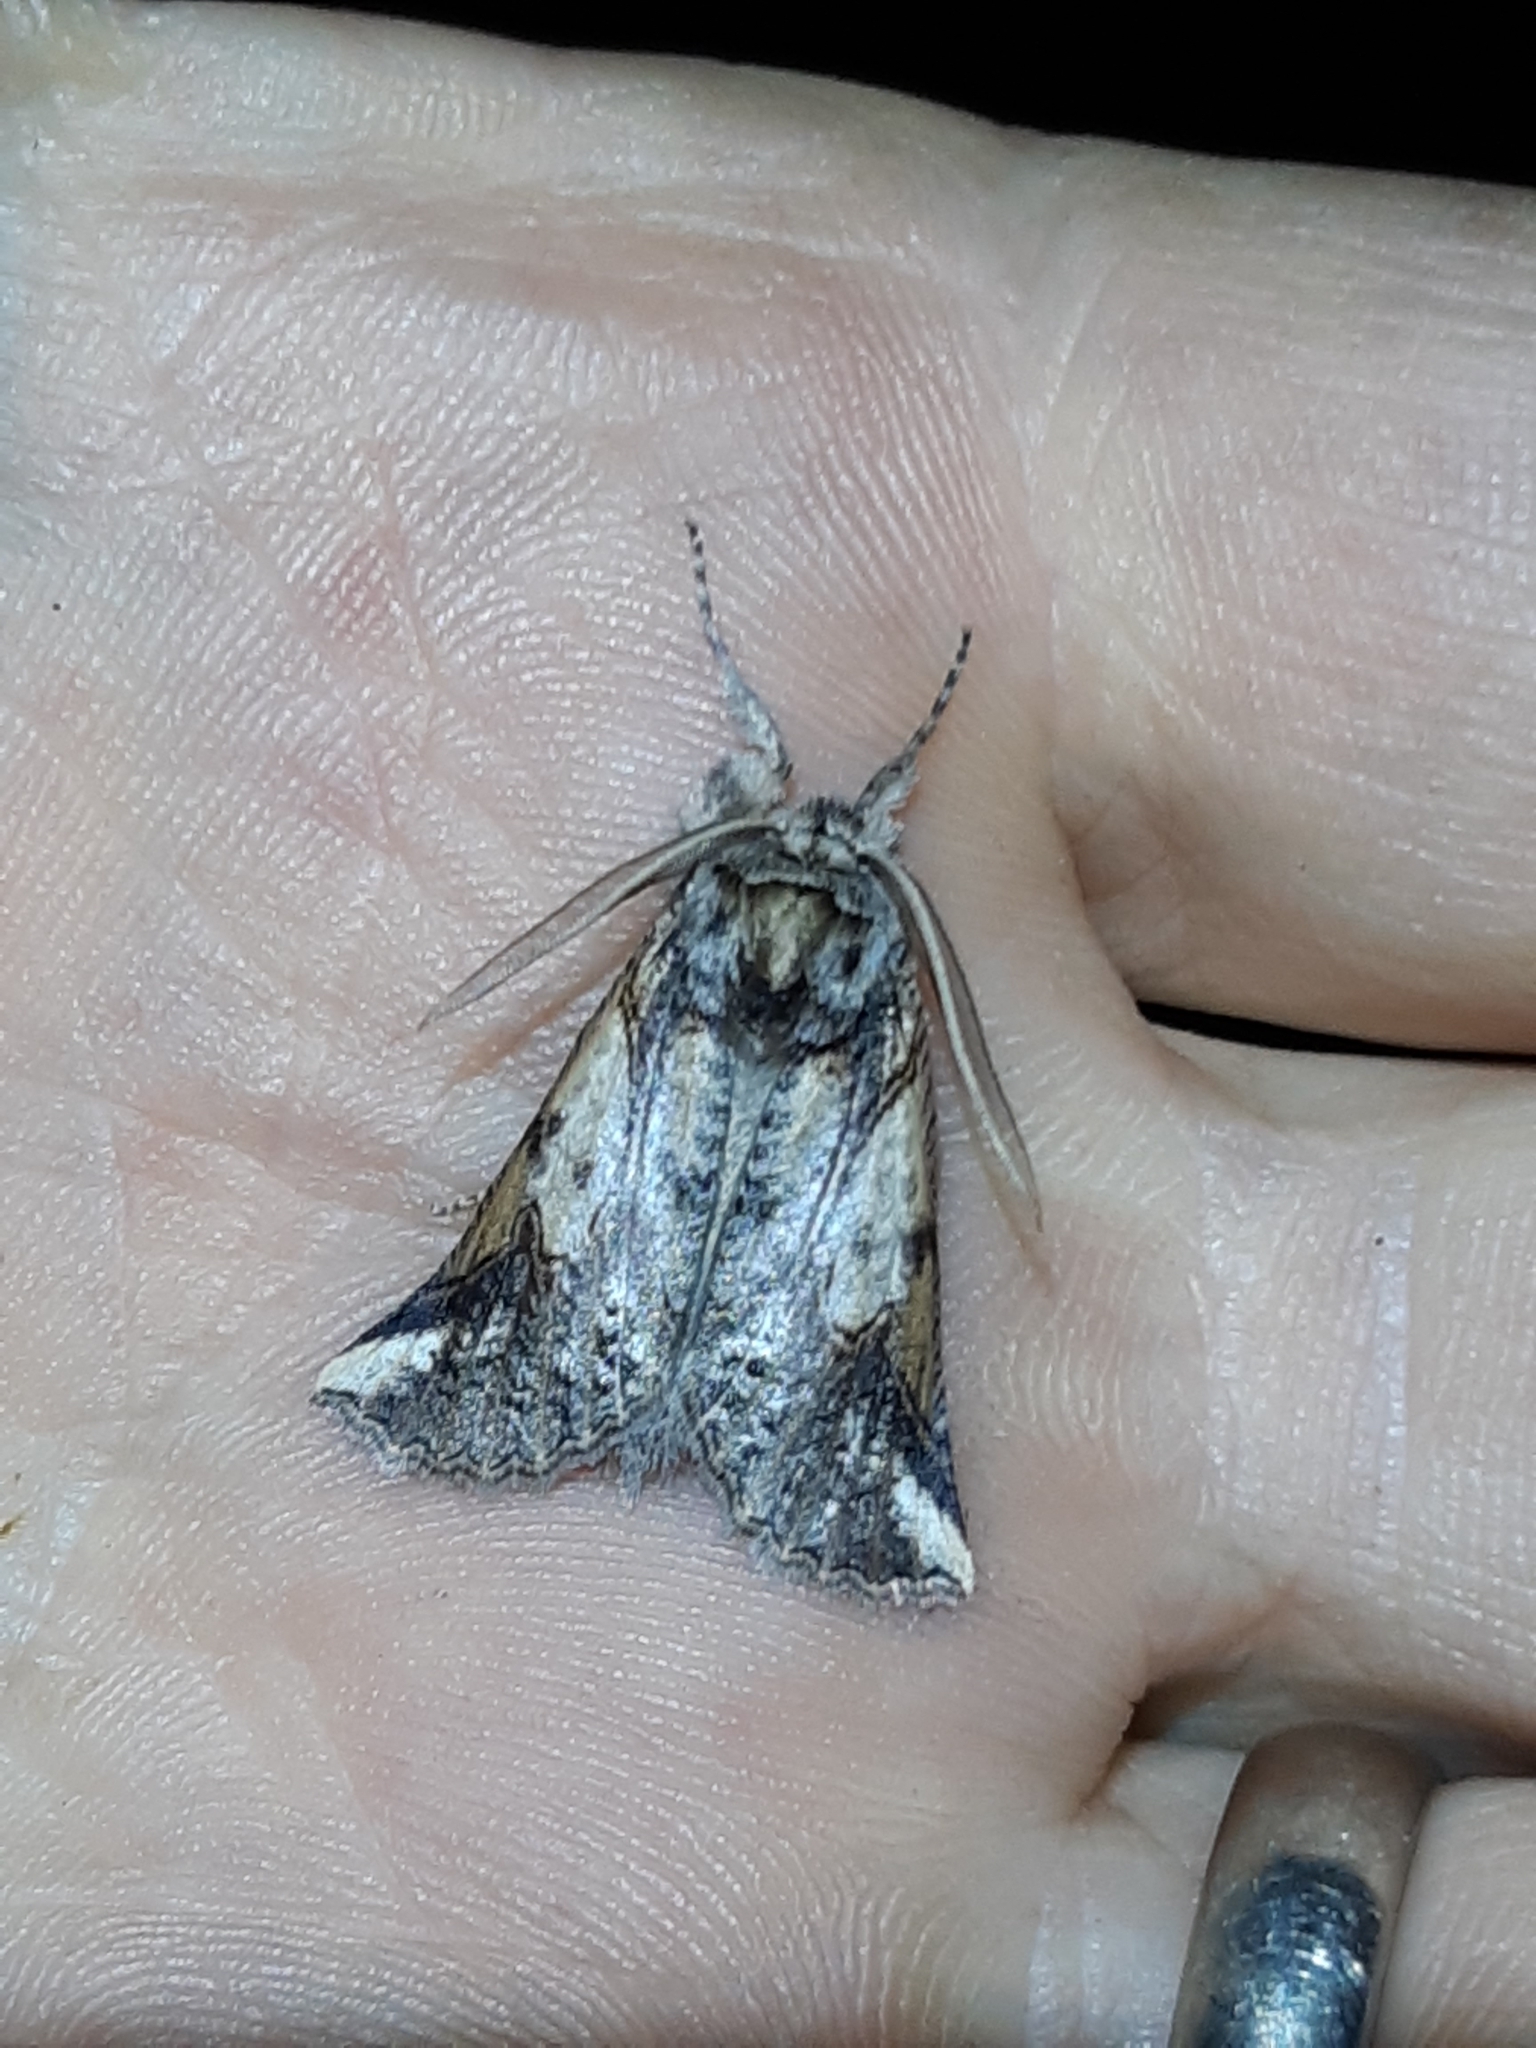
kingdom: Animalia
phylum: Arthropoda
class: Insecta
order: Lepidoptera
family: Geometridae
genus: Declana
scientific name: Declana
